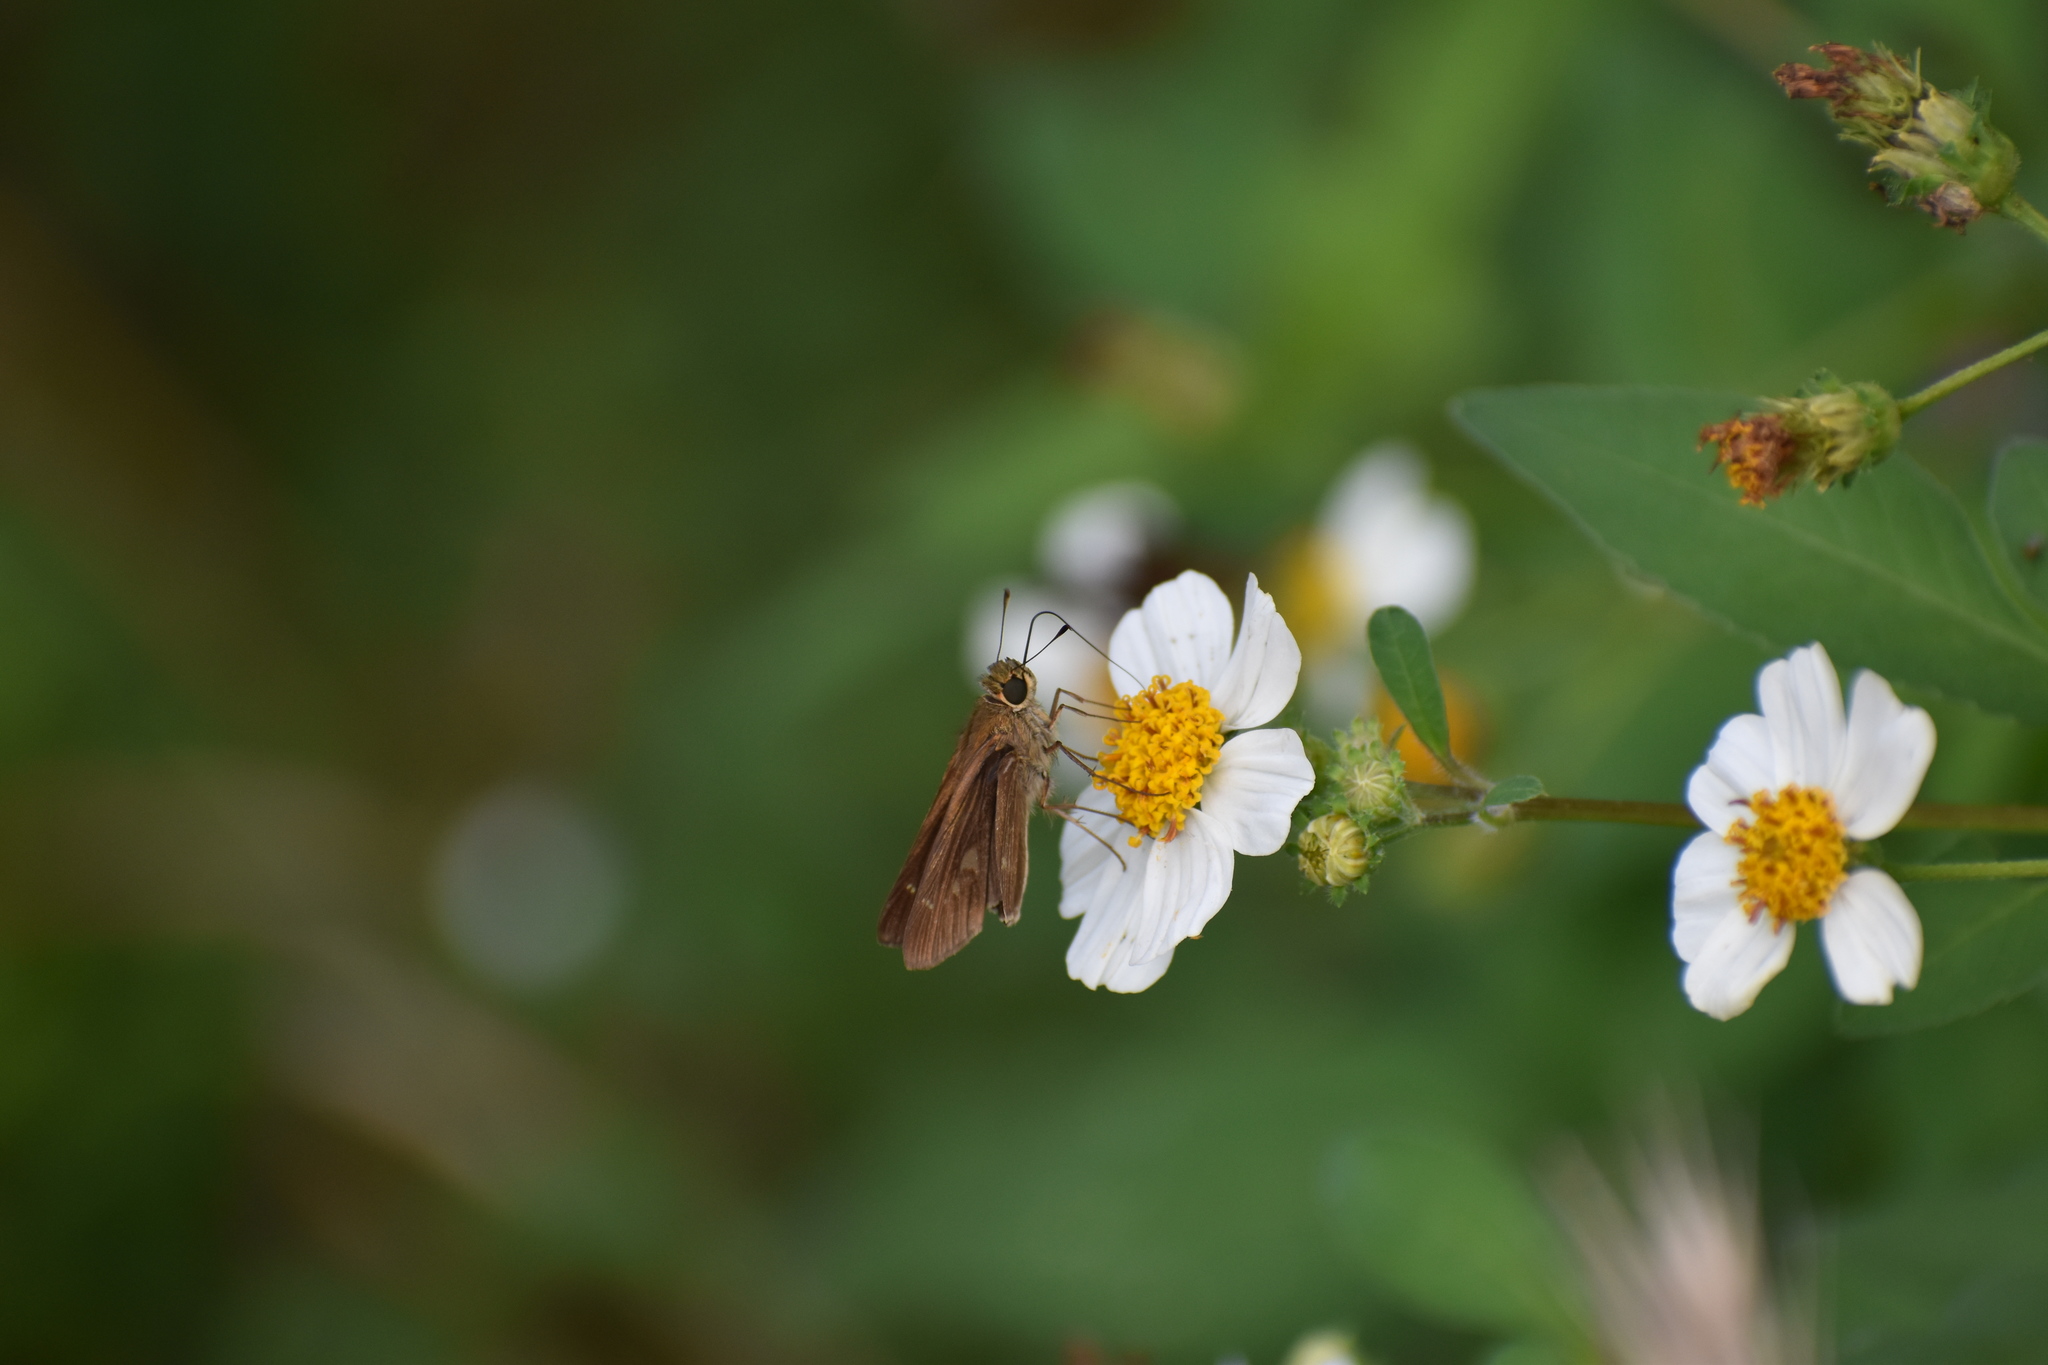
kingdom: Animalia
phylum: Arthropoda
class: Insecta
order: Lepidoptera
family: Hesperiidae
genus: Panoquina
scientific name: Panoquina ocola
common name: Ocola skipper
